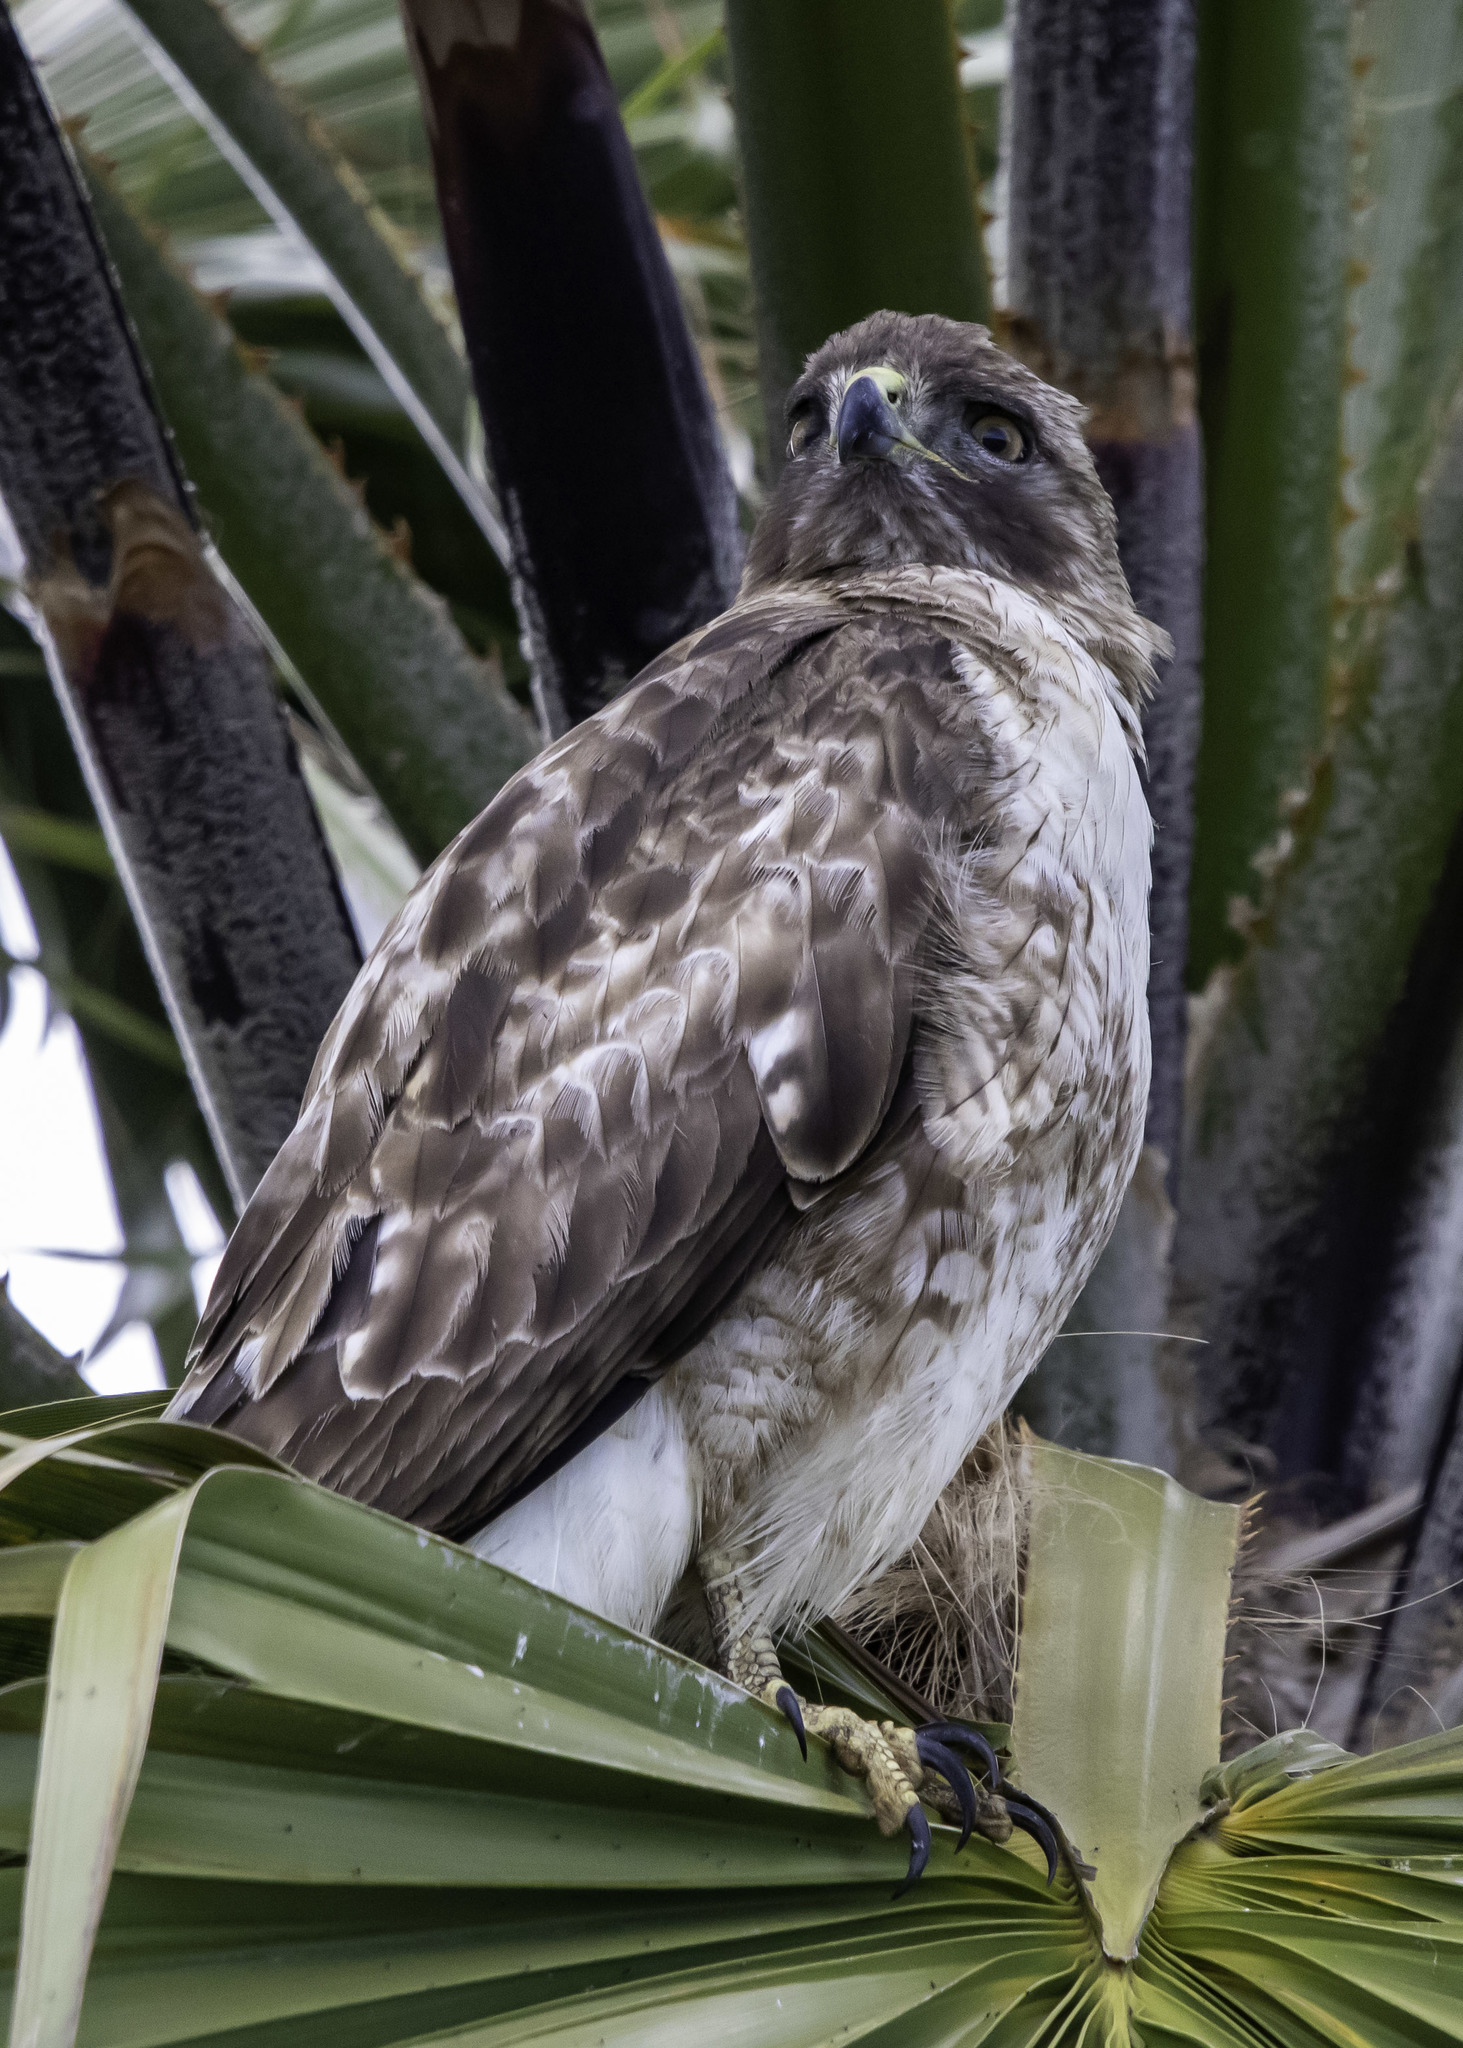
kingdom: Animalia
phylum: Chordata
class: Aves
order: Accipitriformes
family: Accipitridae
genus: Buteo
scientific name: Buteo jamaicensis
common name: Red-tailed hawk
